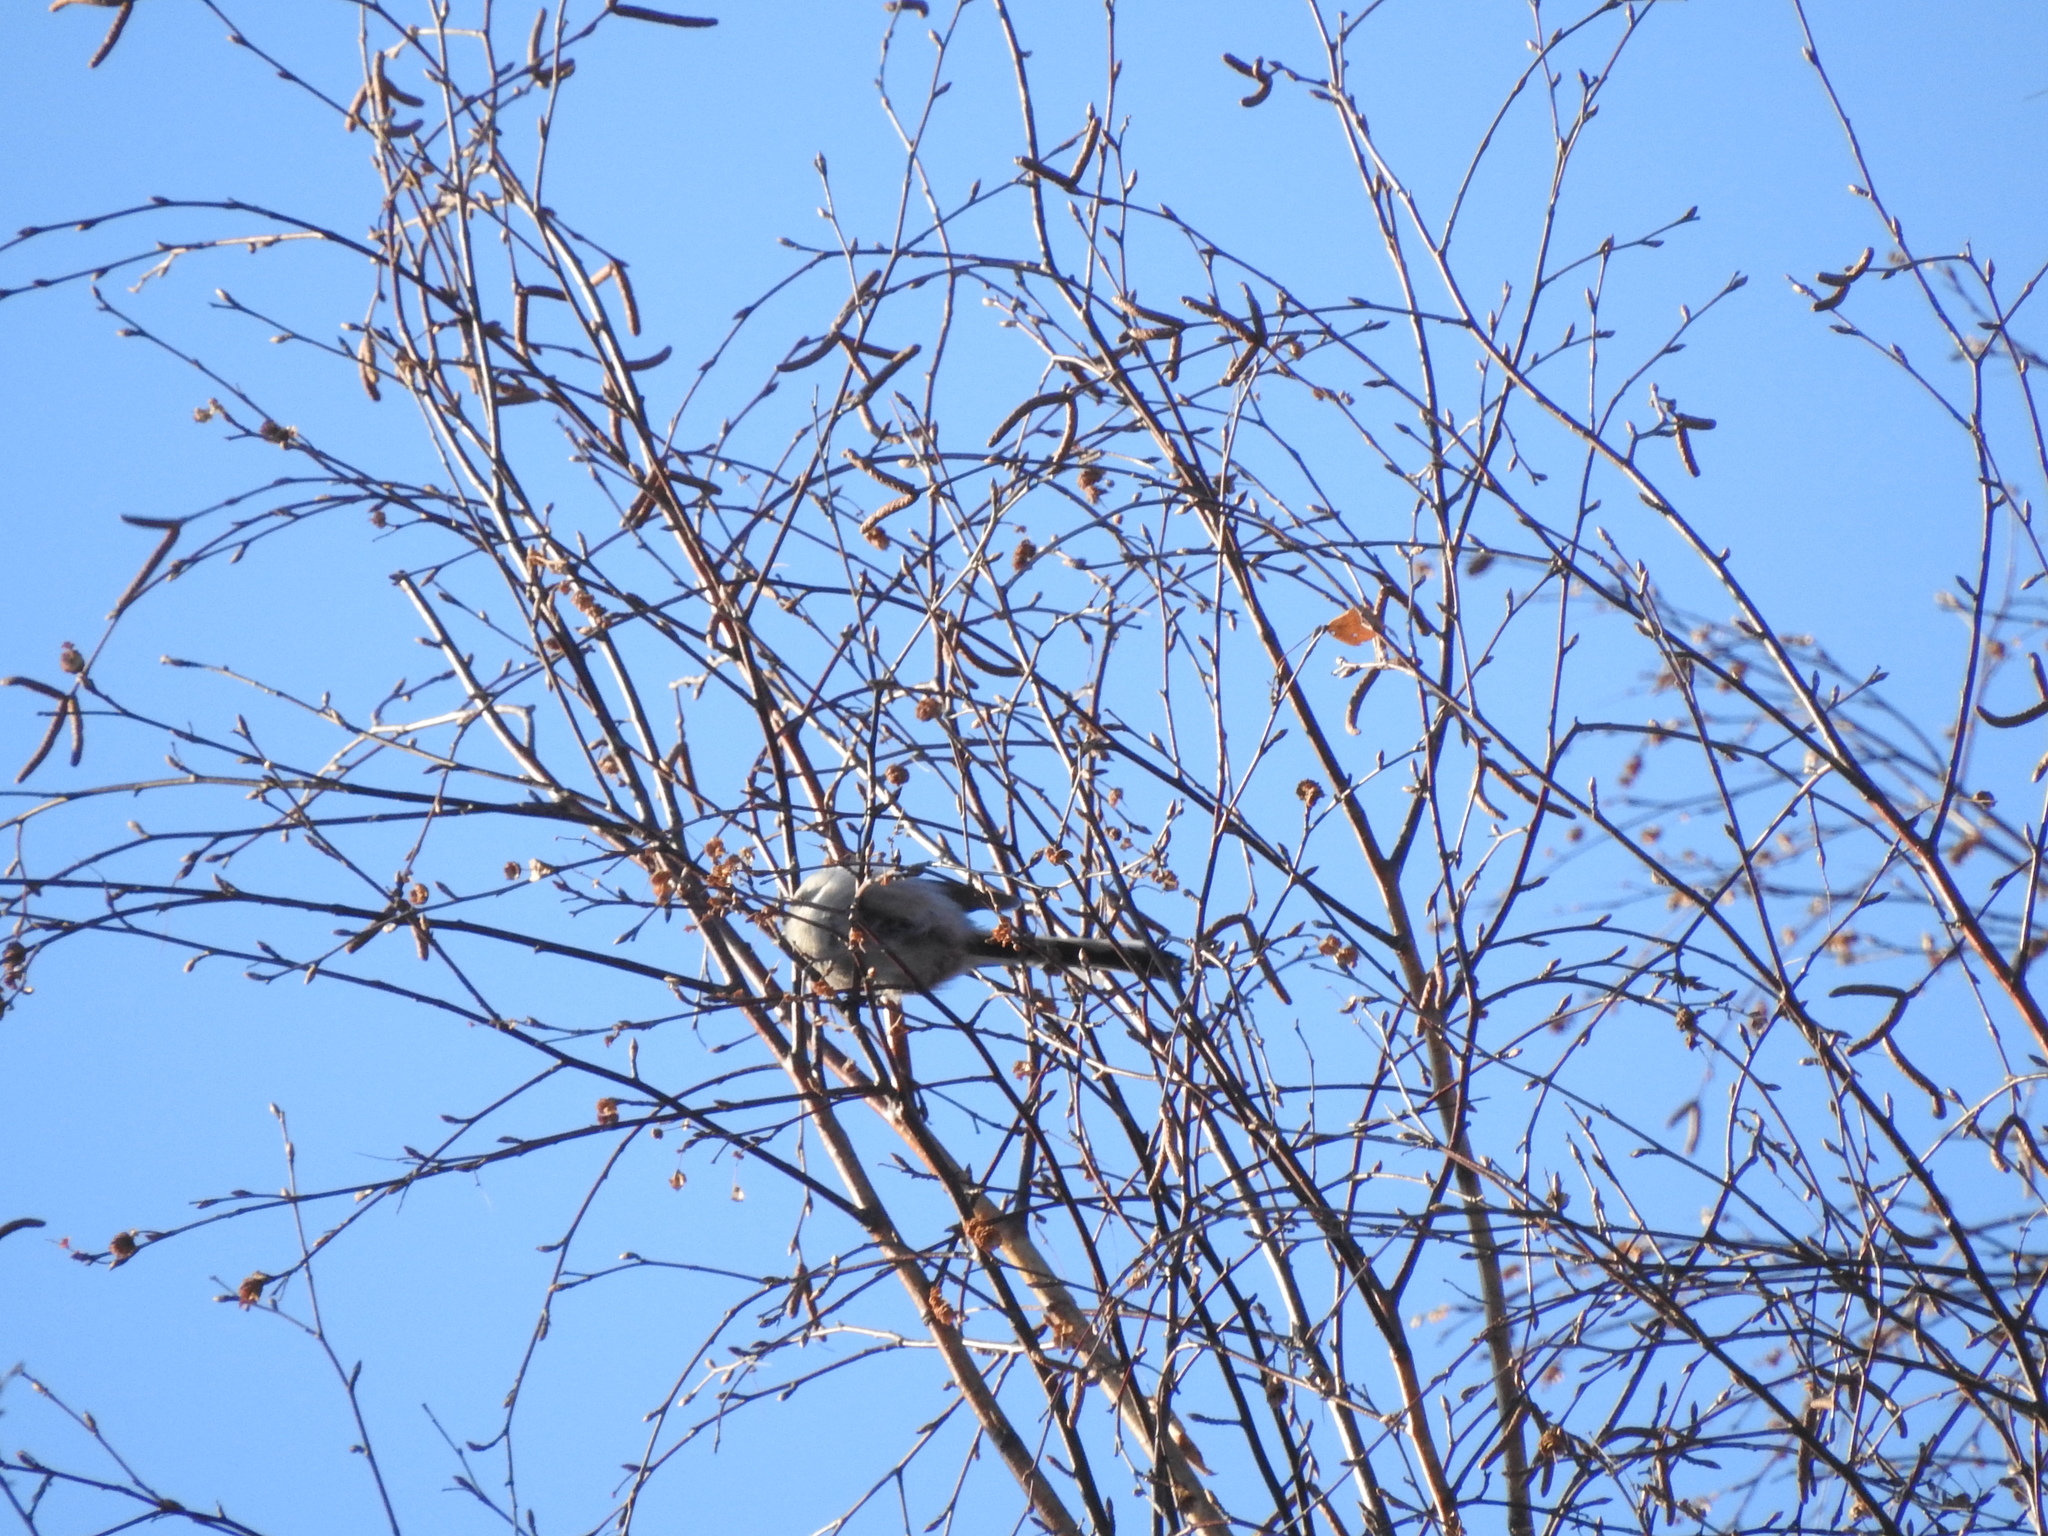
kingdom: Animalia
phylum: Chordata
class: Aves
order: Passeriformes
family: Aegithalidae
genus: Aegithalos
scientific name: Aegithalos caudatus
